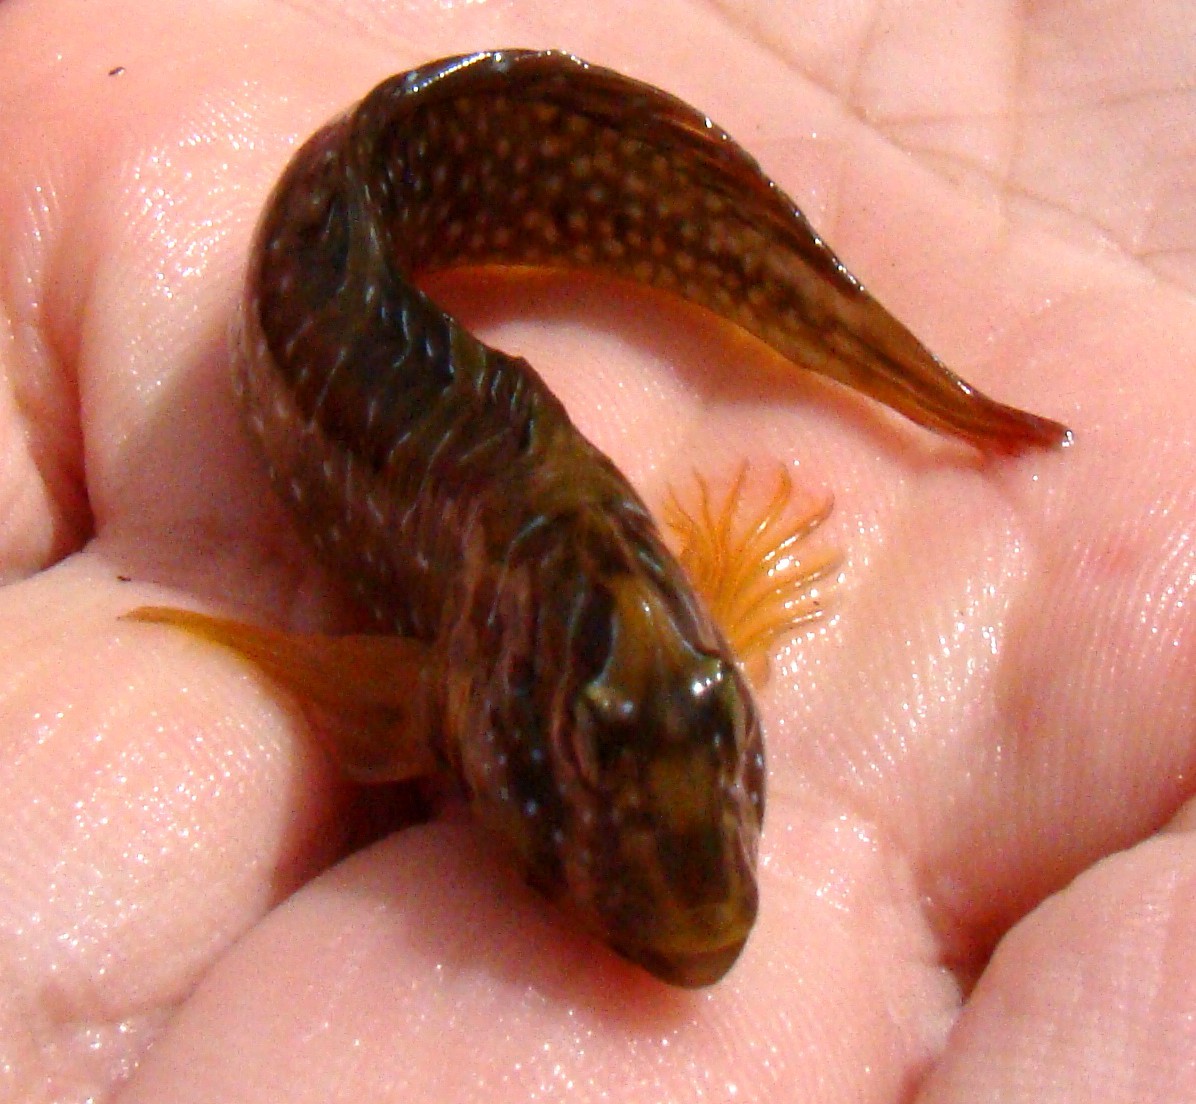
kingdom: Animalia
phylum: Chordata
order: Perciformes
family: Blenniidae
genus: Salaria
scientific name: Salaria pavo
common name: Peacock blenny
